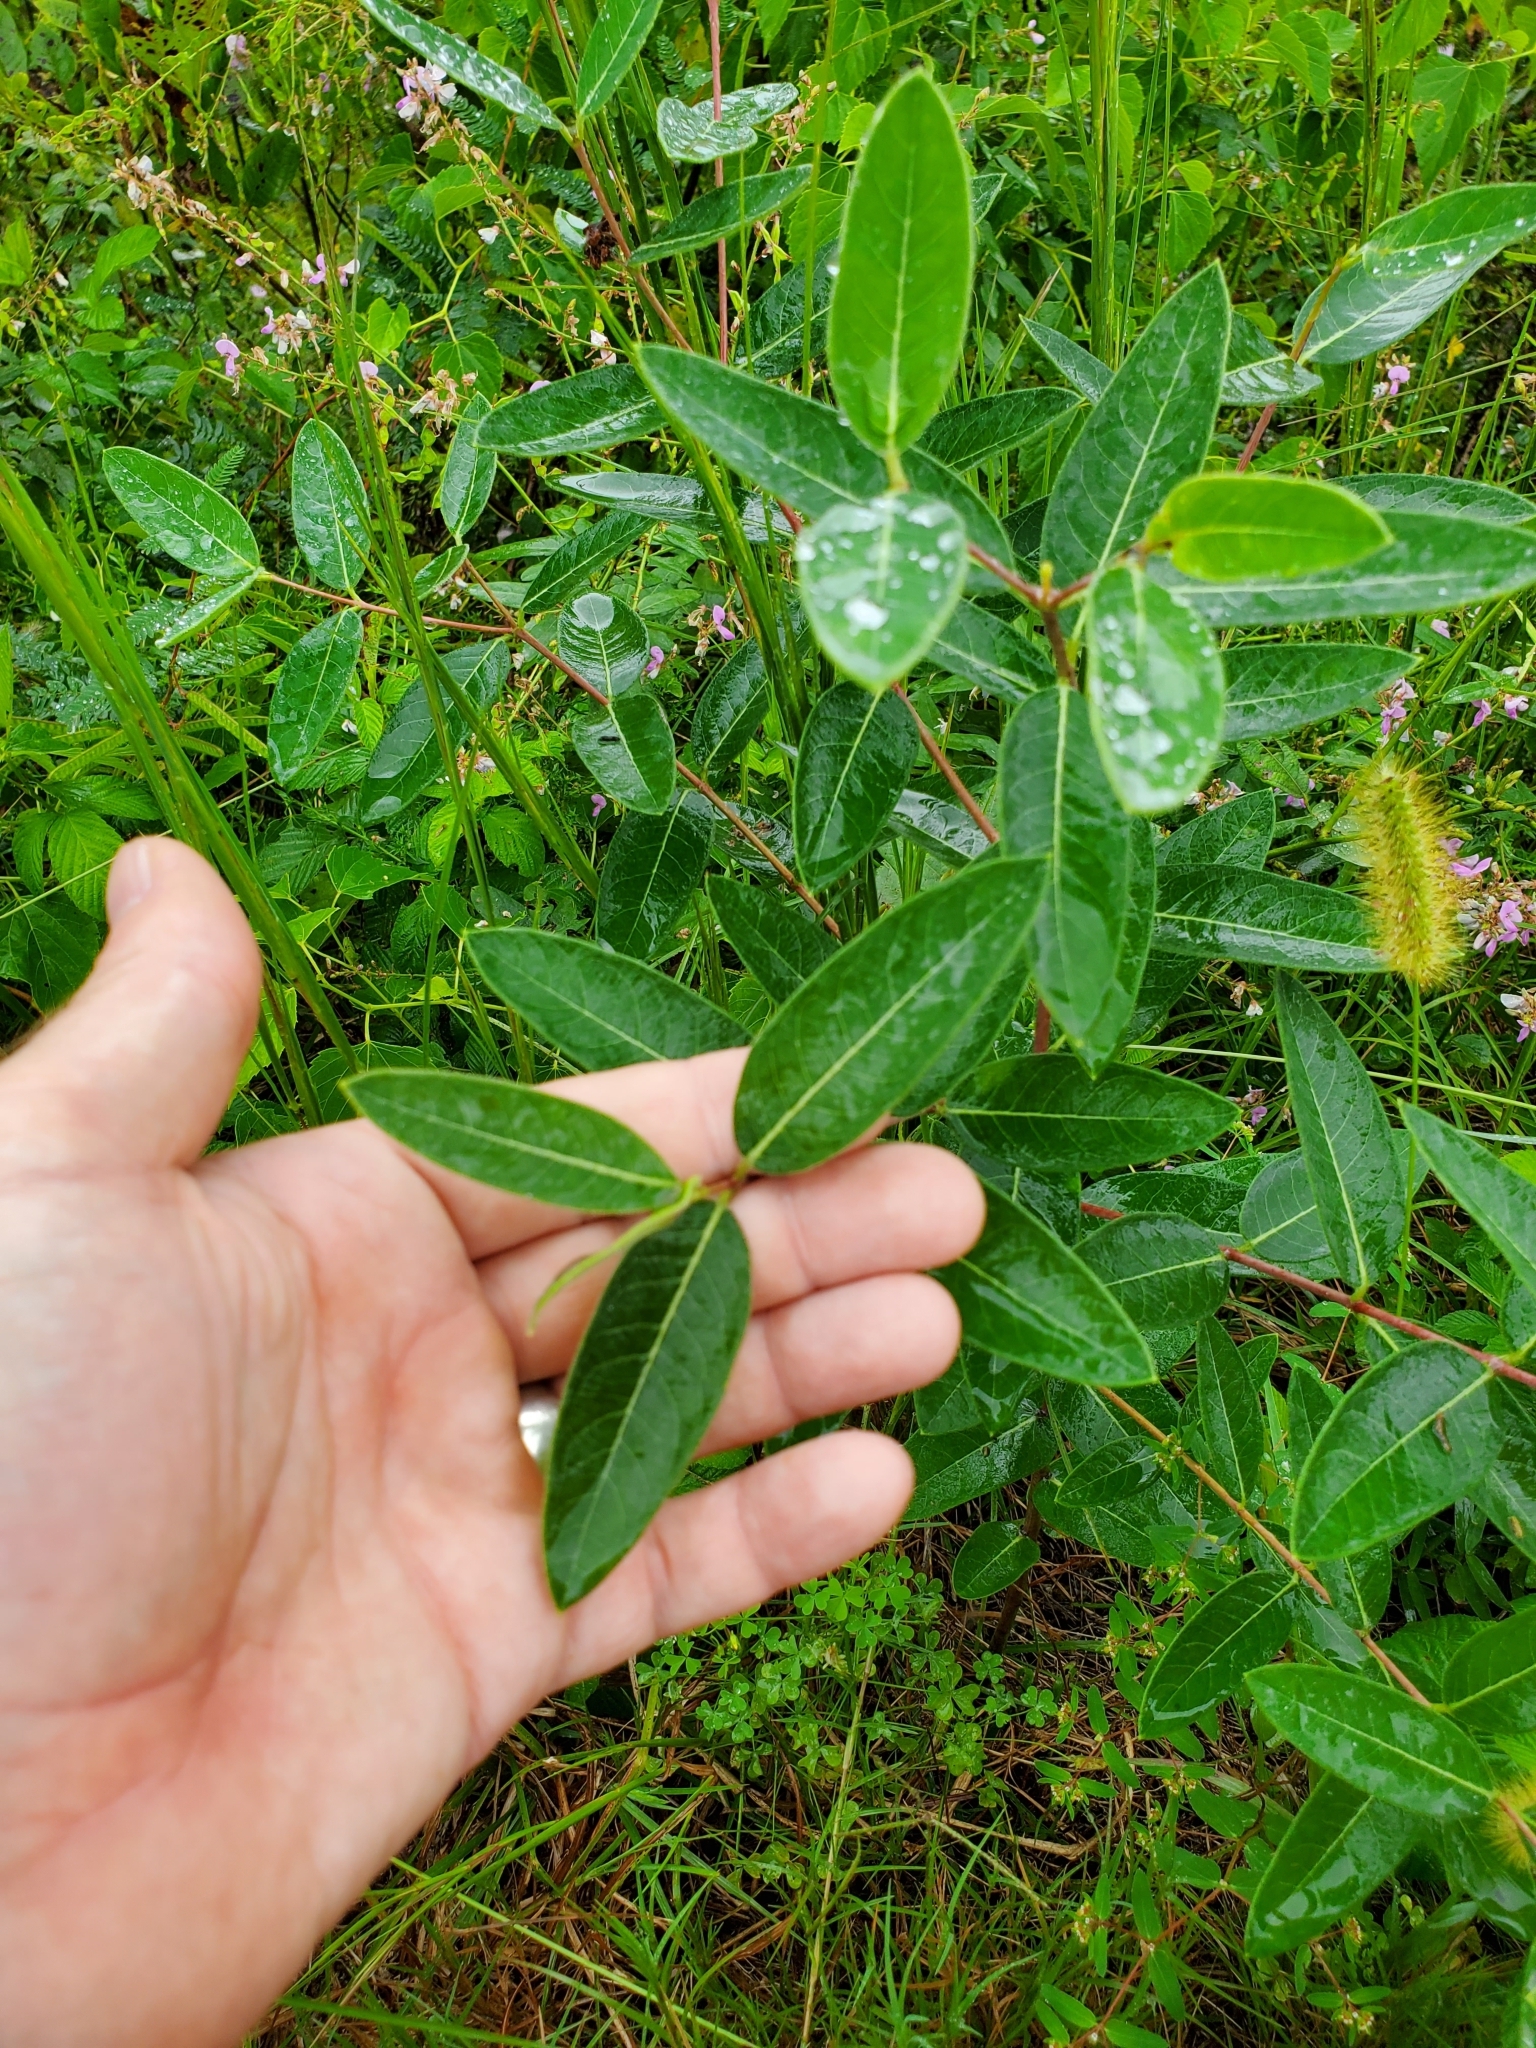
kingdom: Plantae
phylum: Tracheophyta
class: Magnoliopsida
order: Gentianales
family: Apocynaceae
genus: Apocynum
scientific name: Apocynum cannabinum
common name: Hemp dogbane
